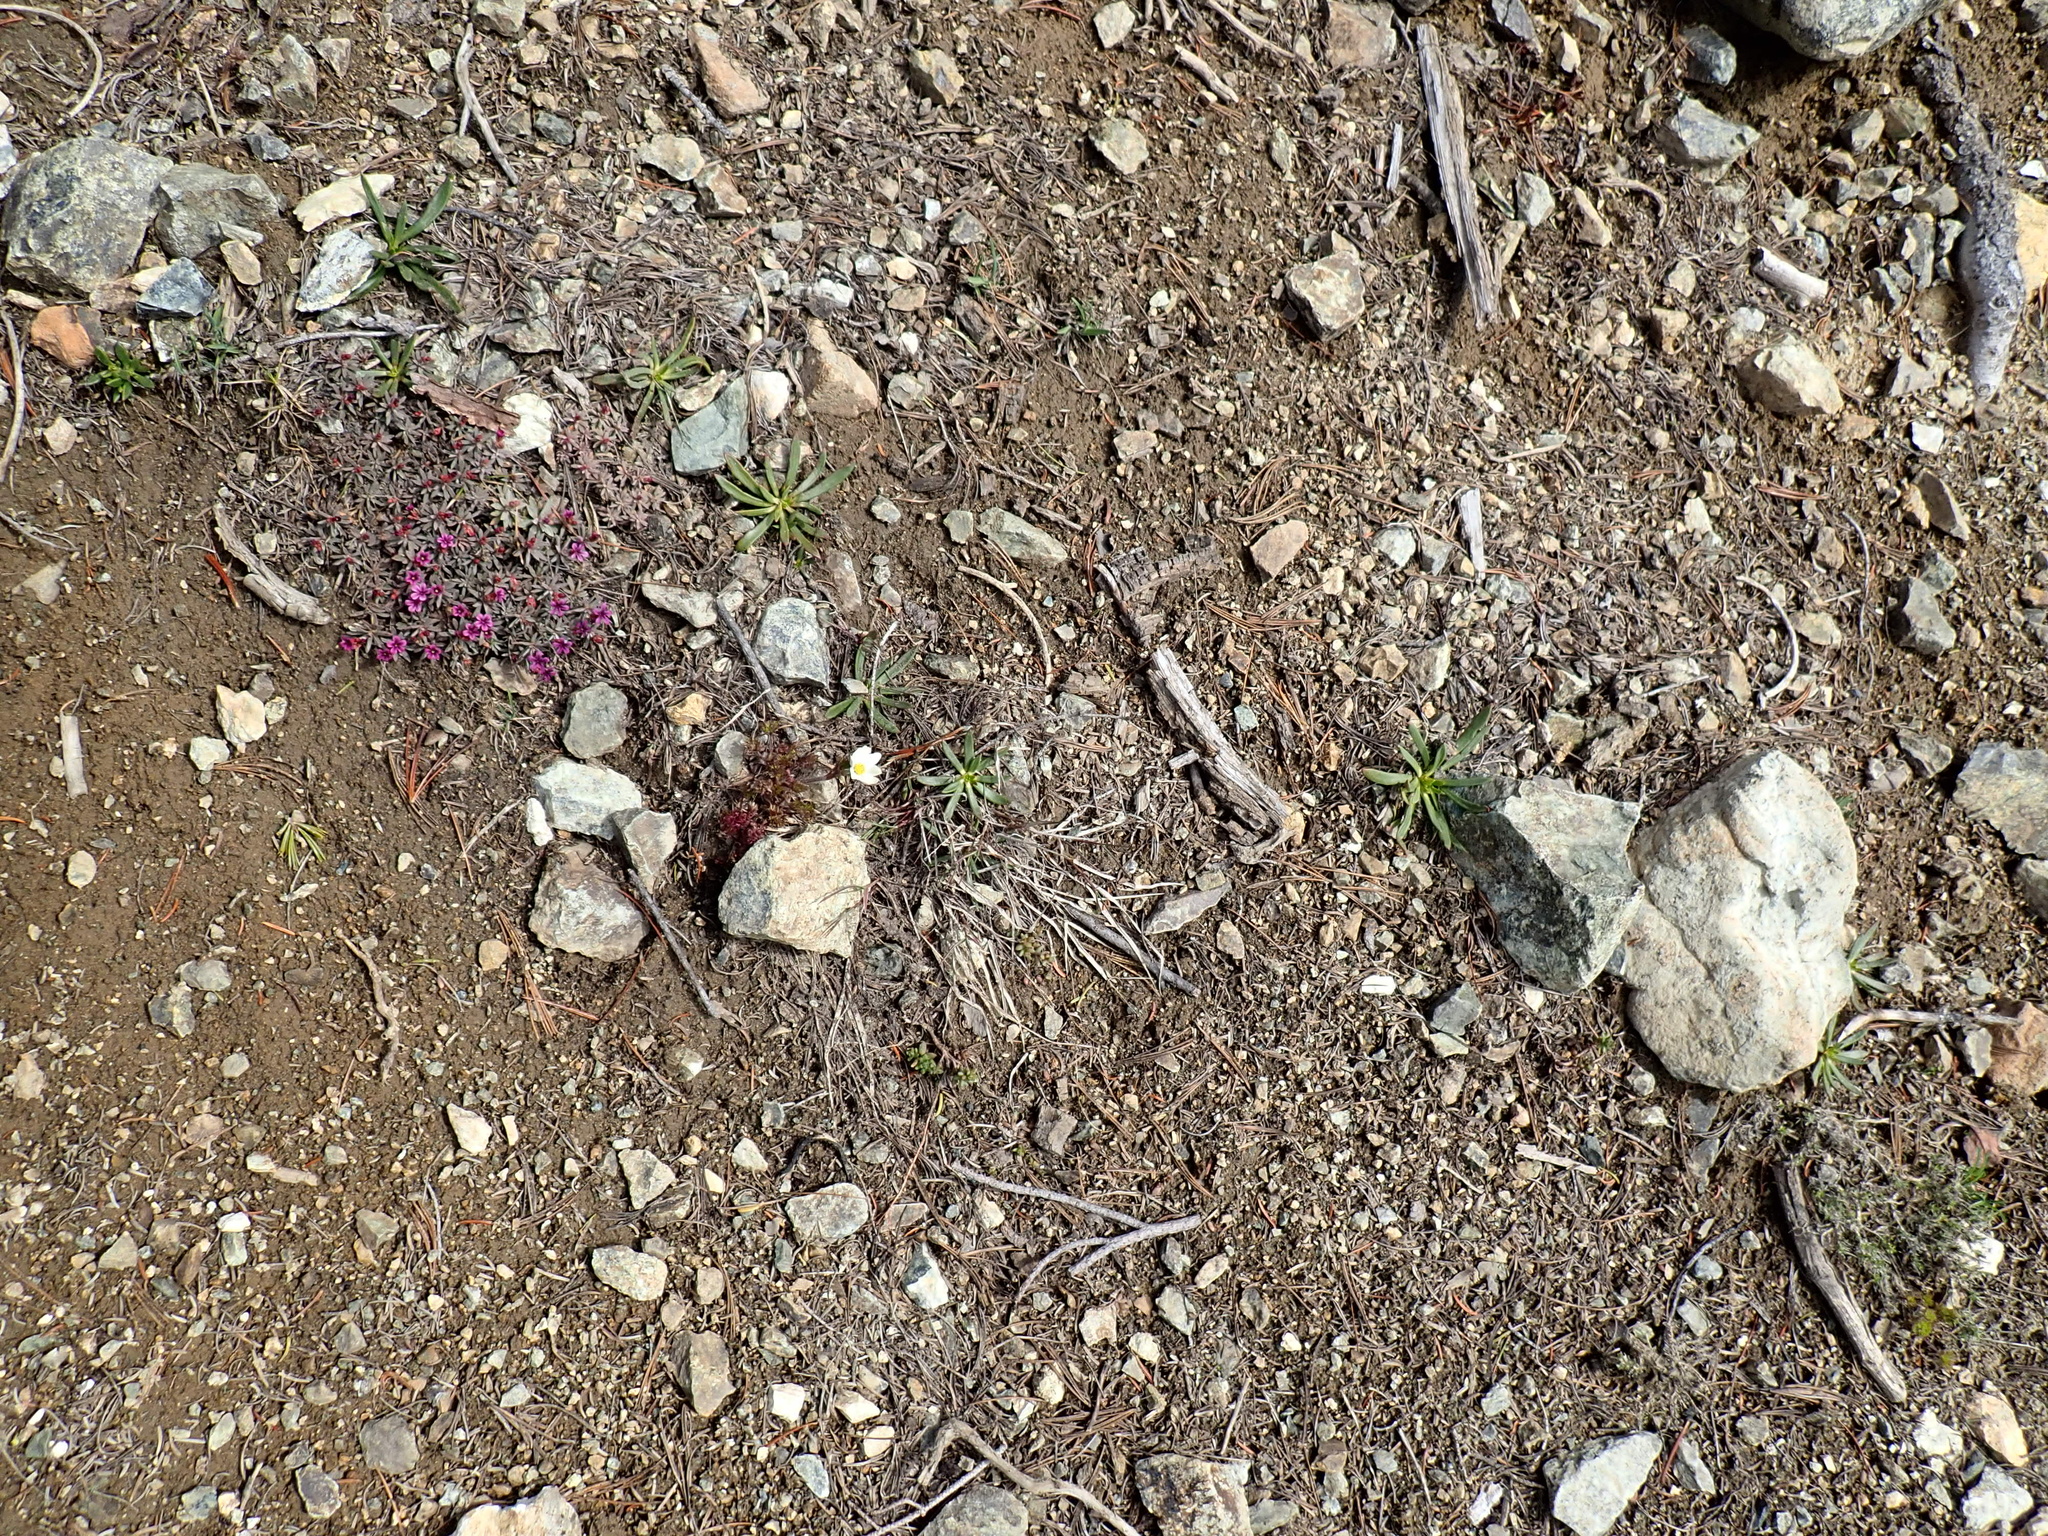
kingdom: Plantae
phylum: Tracheophyta
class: Magnoliopsida
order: Caryophyllales
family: Montiaceae
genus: Lewisia
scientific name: Lewisia columbiana
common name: Columbia lewisia
